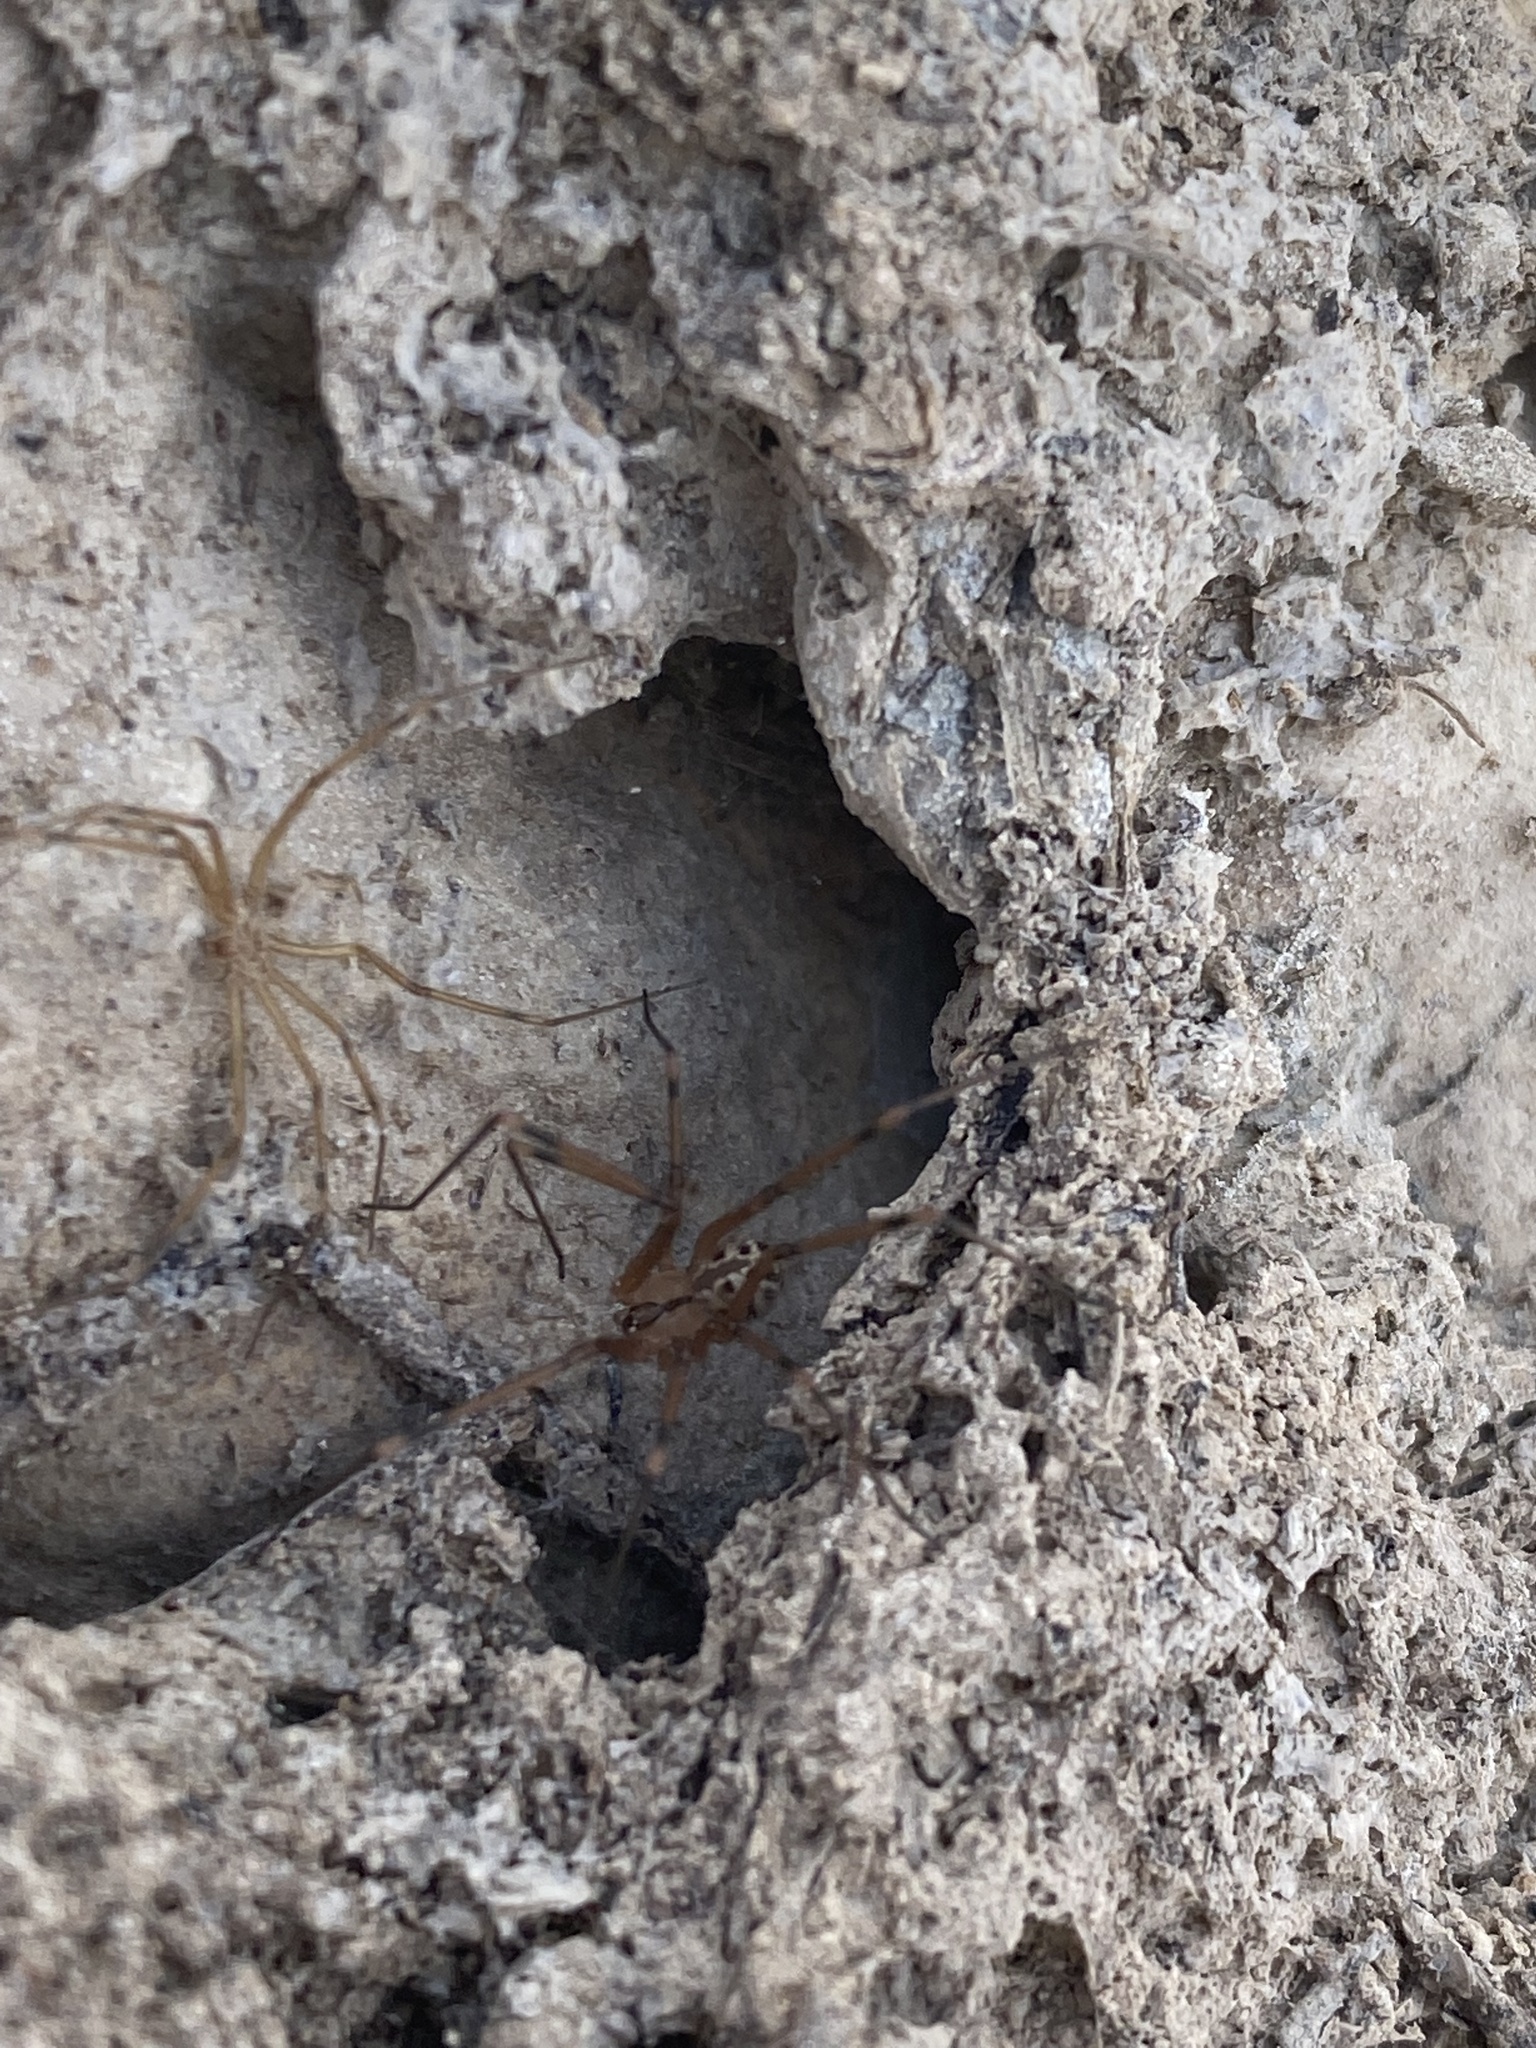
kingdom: Animalia
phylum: Arthropoda
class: Arachnida
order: Araneae
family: Pholcidae
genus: Artema
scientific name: Artema doriae
